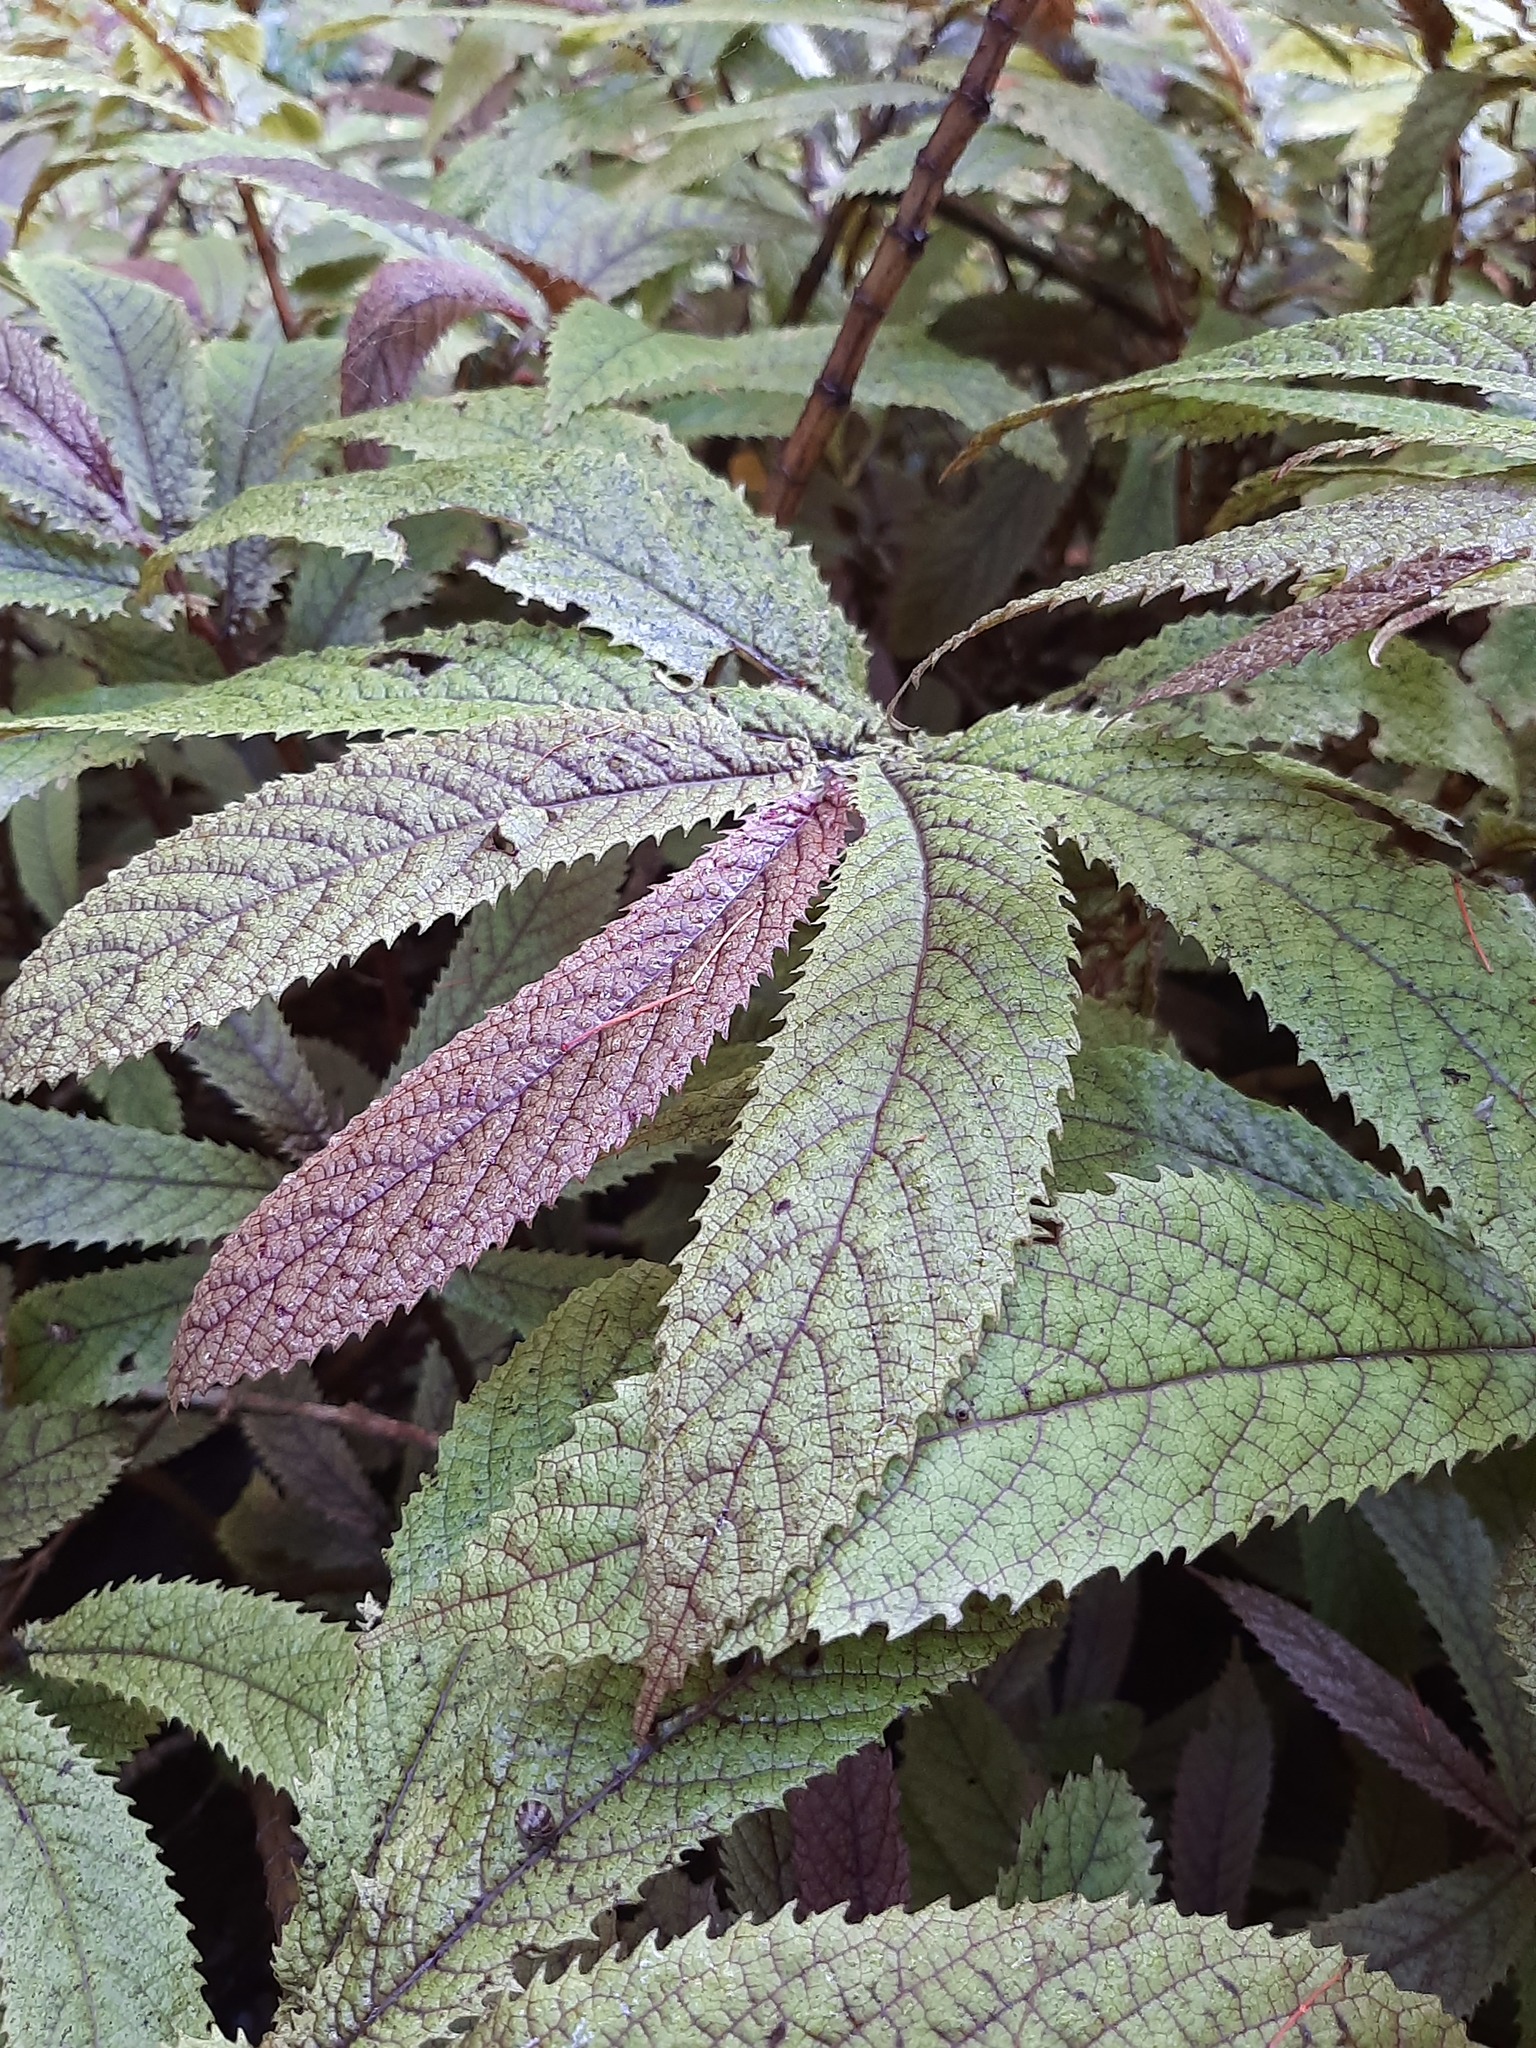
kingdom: Plantae
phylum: Tracheophyta
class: Magnoliopsida
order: Rosales
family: Urticaceae
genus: Elatostema
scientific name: Elatostema rugosum
